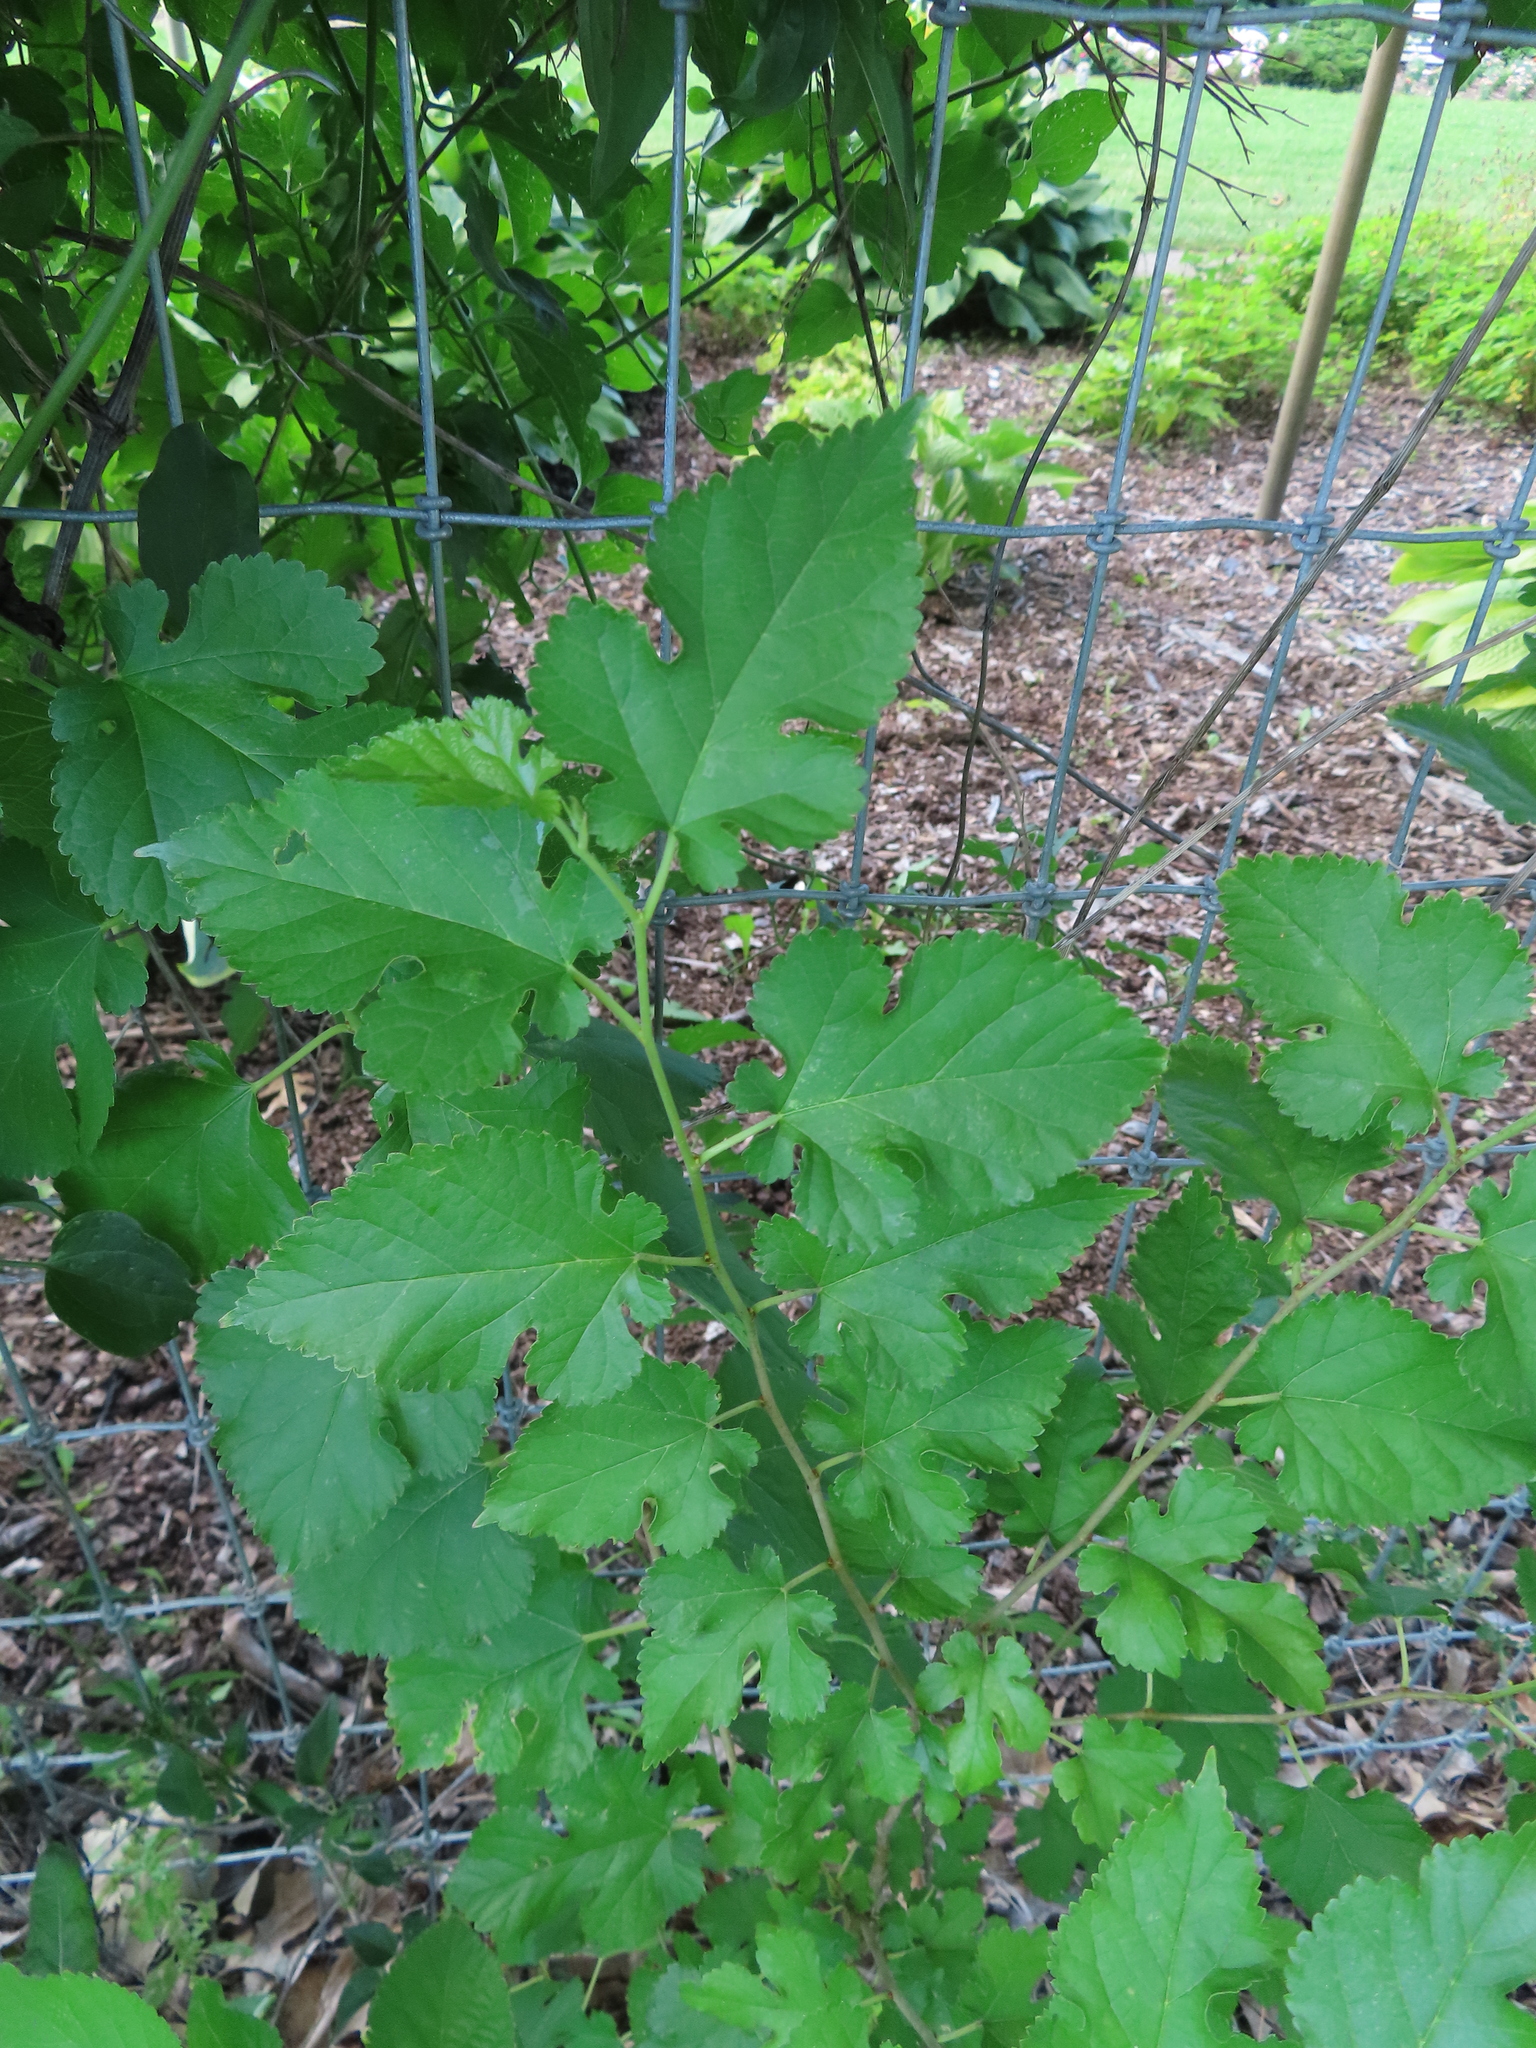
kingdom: Plantae
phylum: Tracheophyta
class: Magnoliopsida
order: Rosales
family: Moraceae
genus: Morus
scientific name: Morus alba
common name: White mulberry
